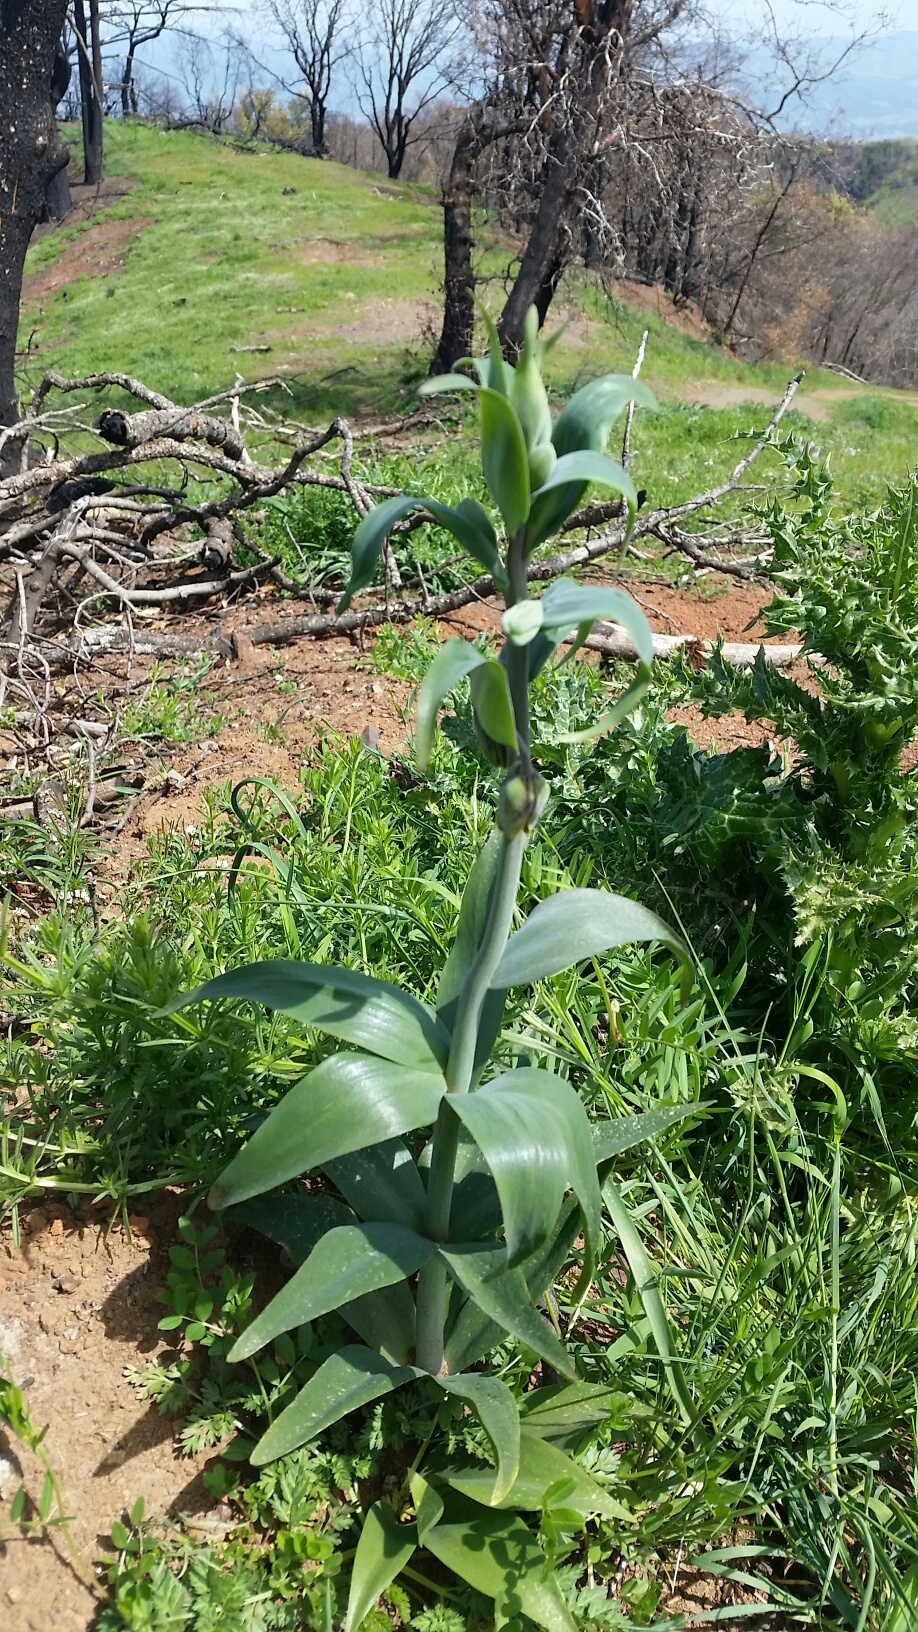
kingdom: Plantae
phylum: Tracheophyta
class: Liliopsida
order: Liliales
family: Liliaceae
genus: Fritillaria
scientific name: Fritillaria affinis
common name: Ojai fritillary
